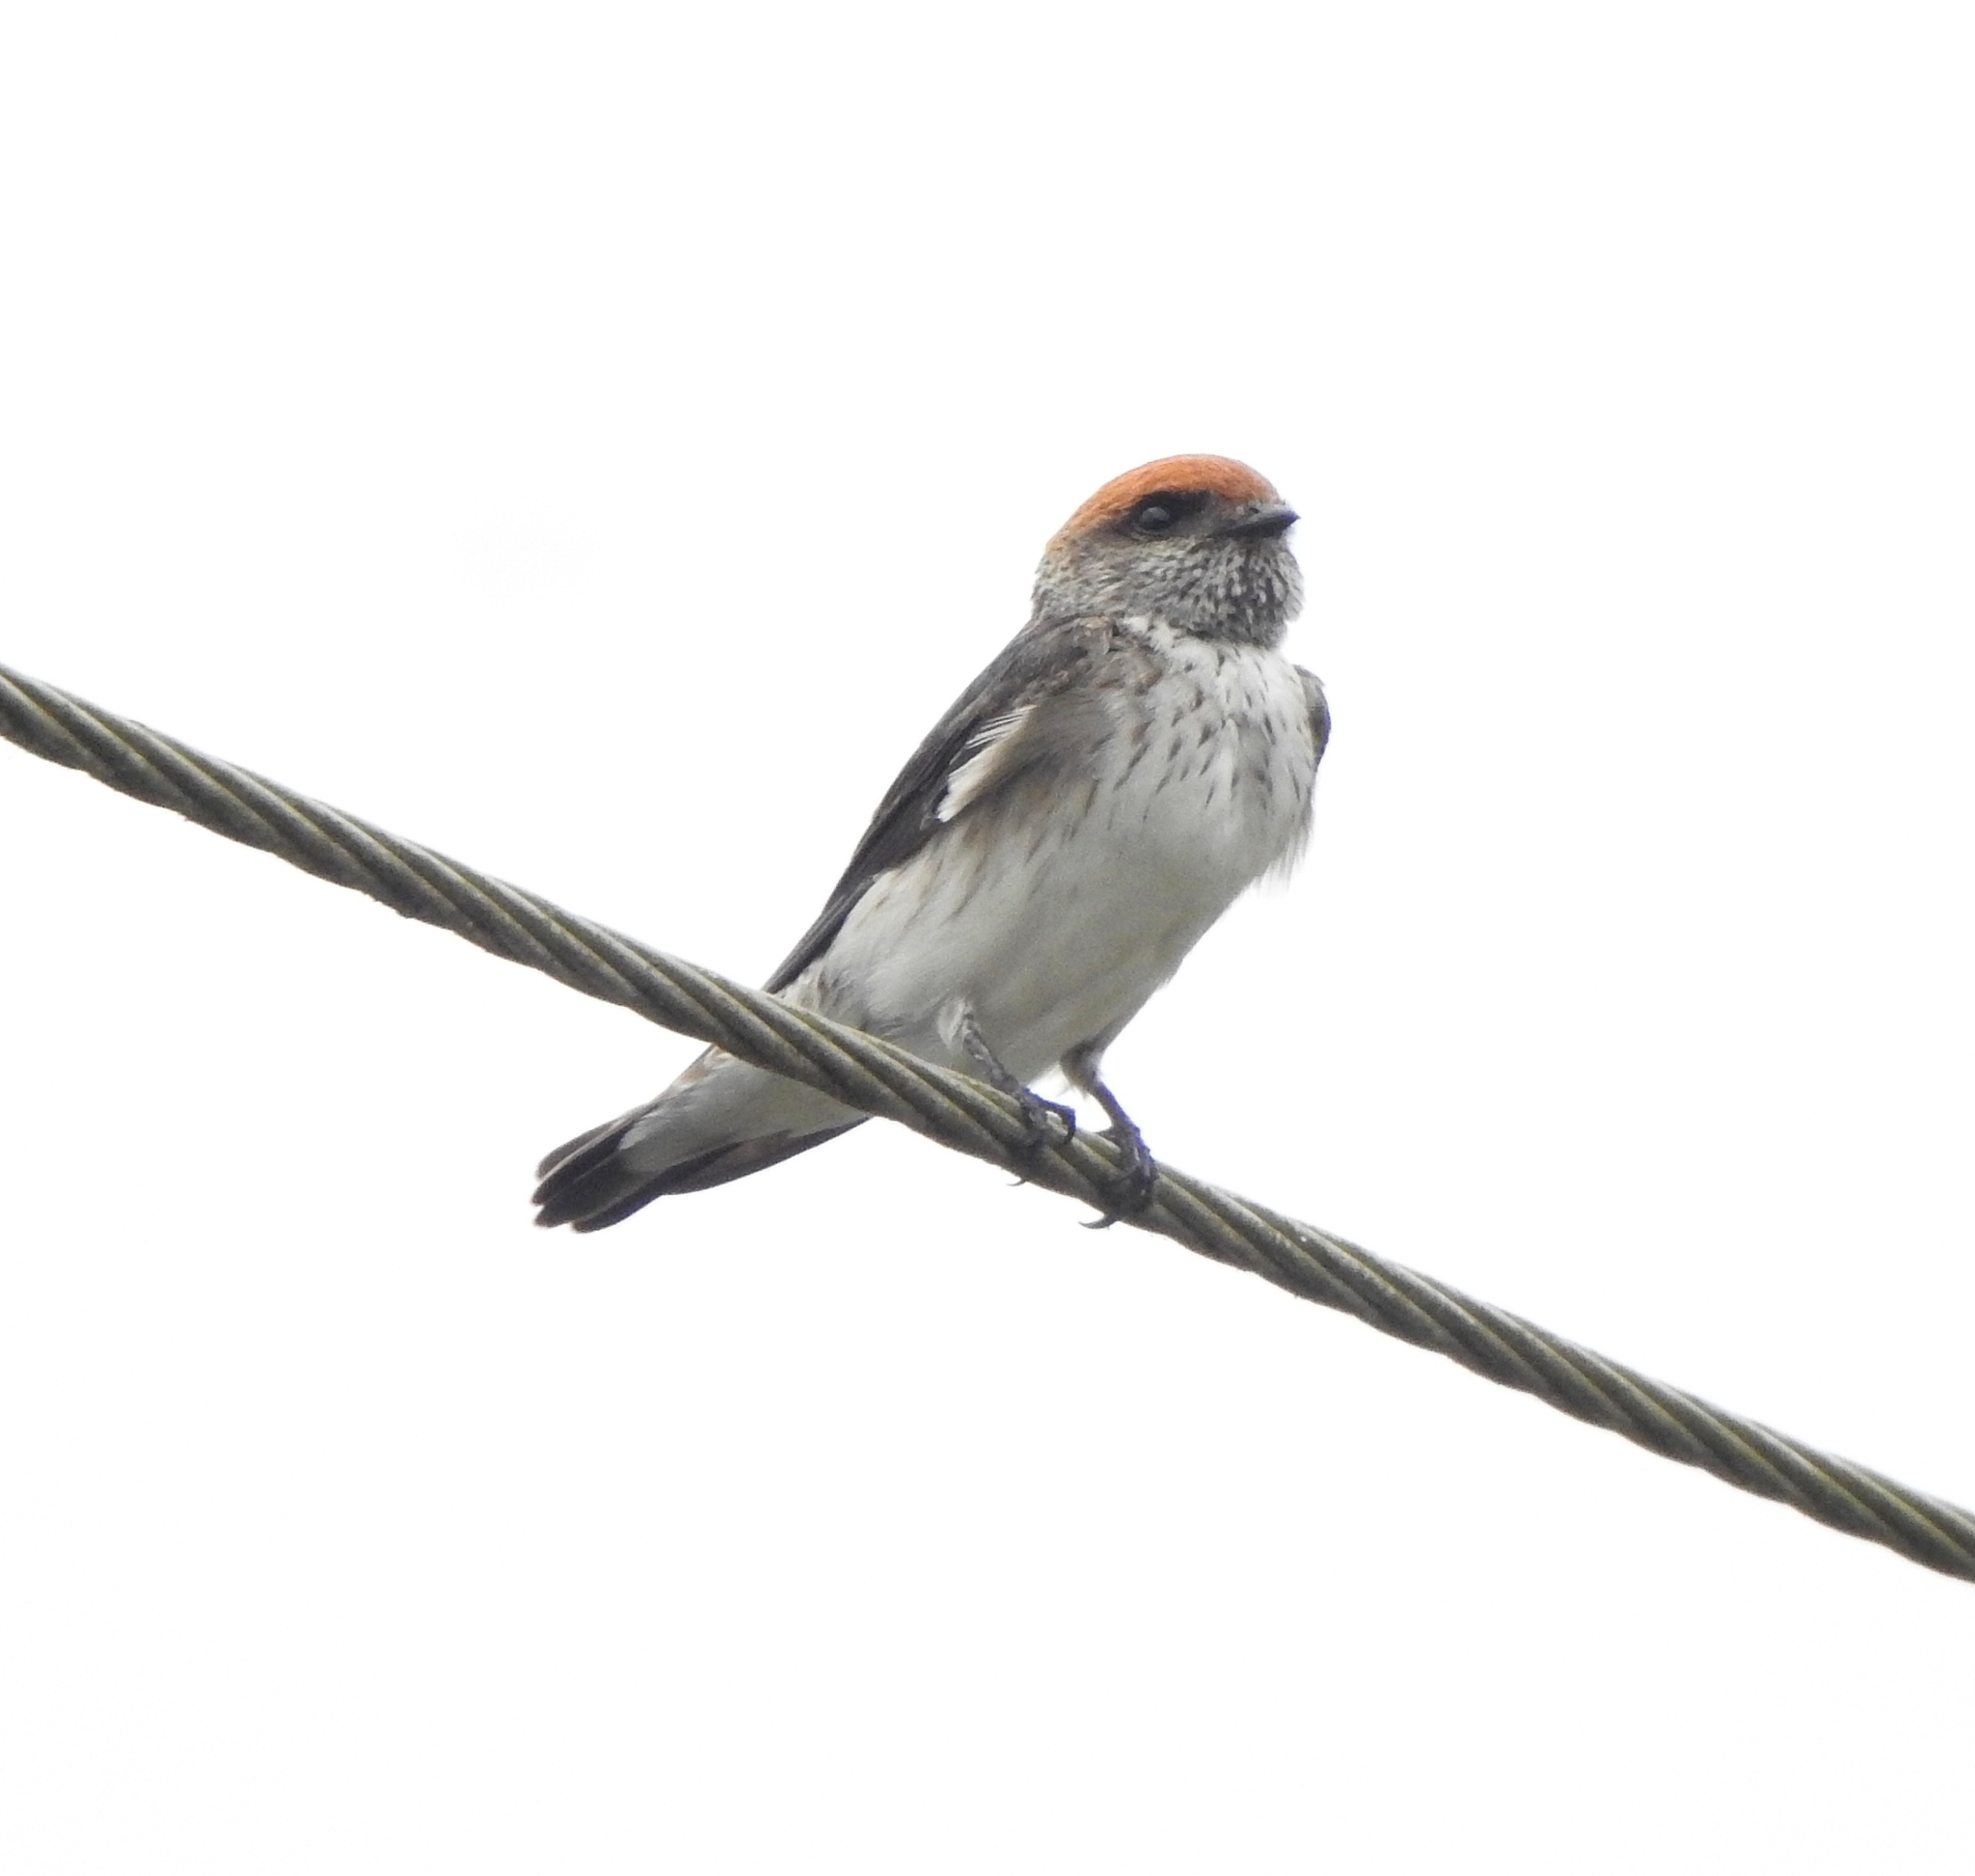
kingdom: Animalia
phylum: Chordata
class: Aves
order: Passeriformes
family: Hirundinidae
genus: Petrochelidon
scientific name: Petrochelidon fluvicola
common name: Streak-throated swallow
